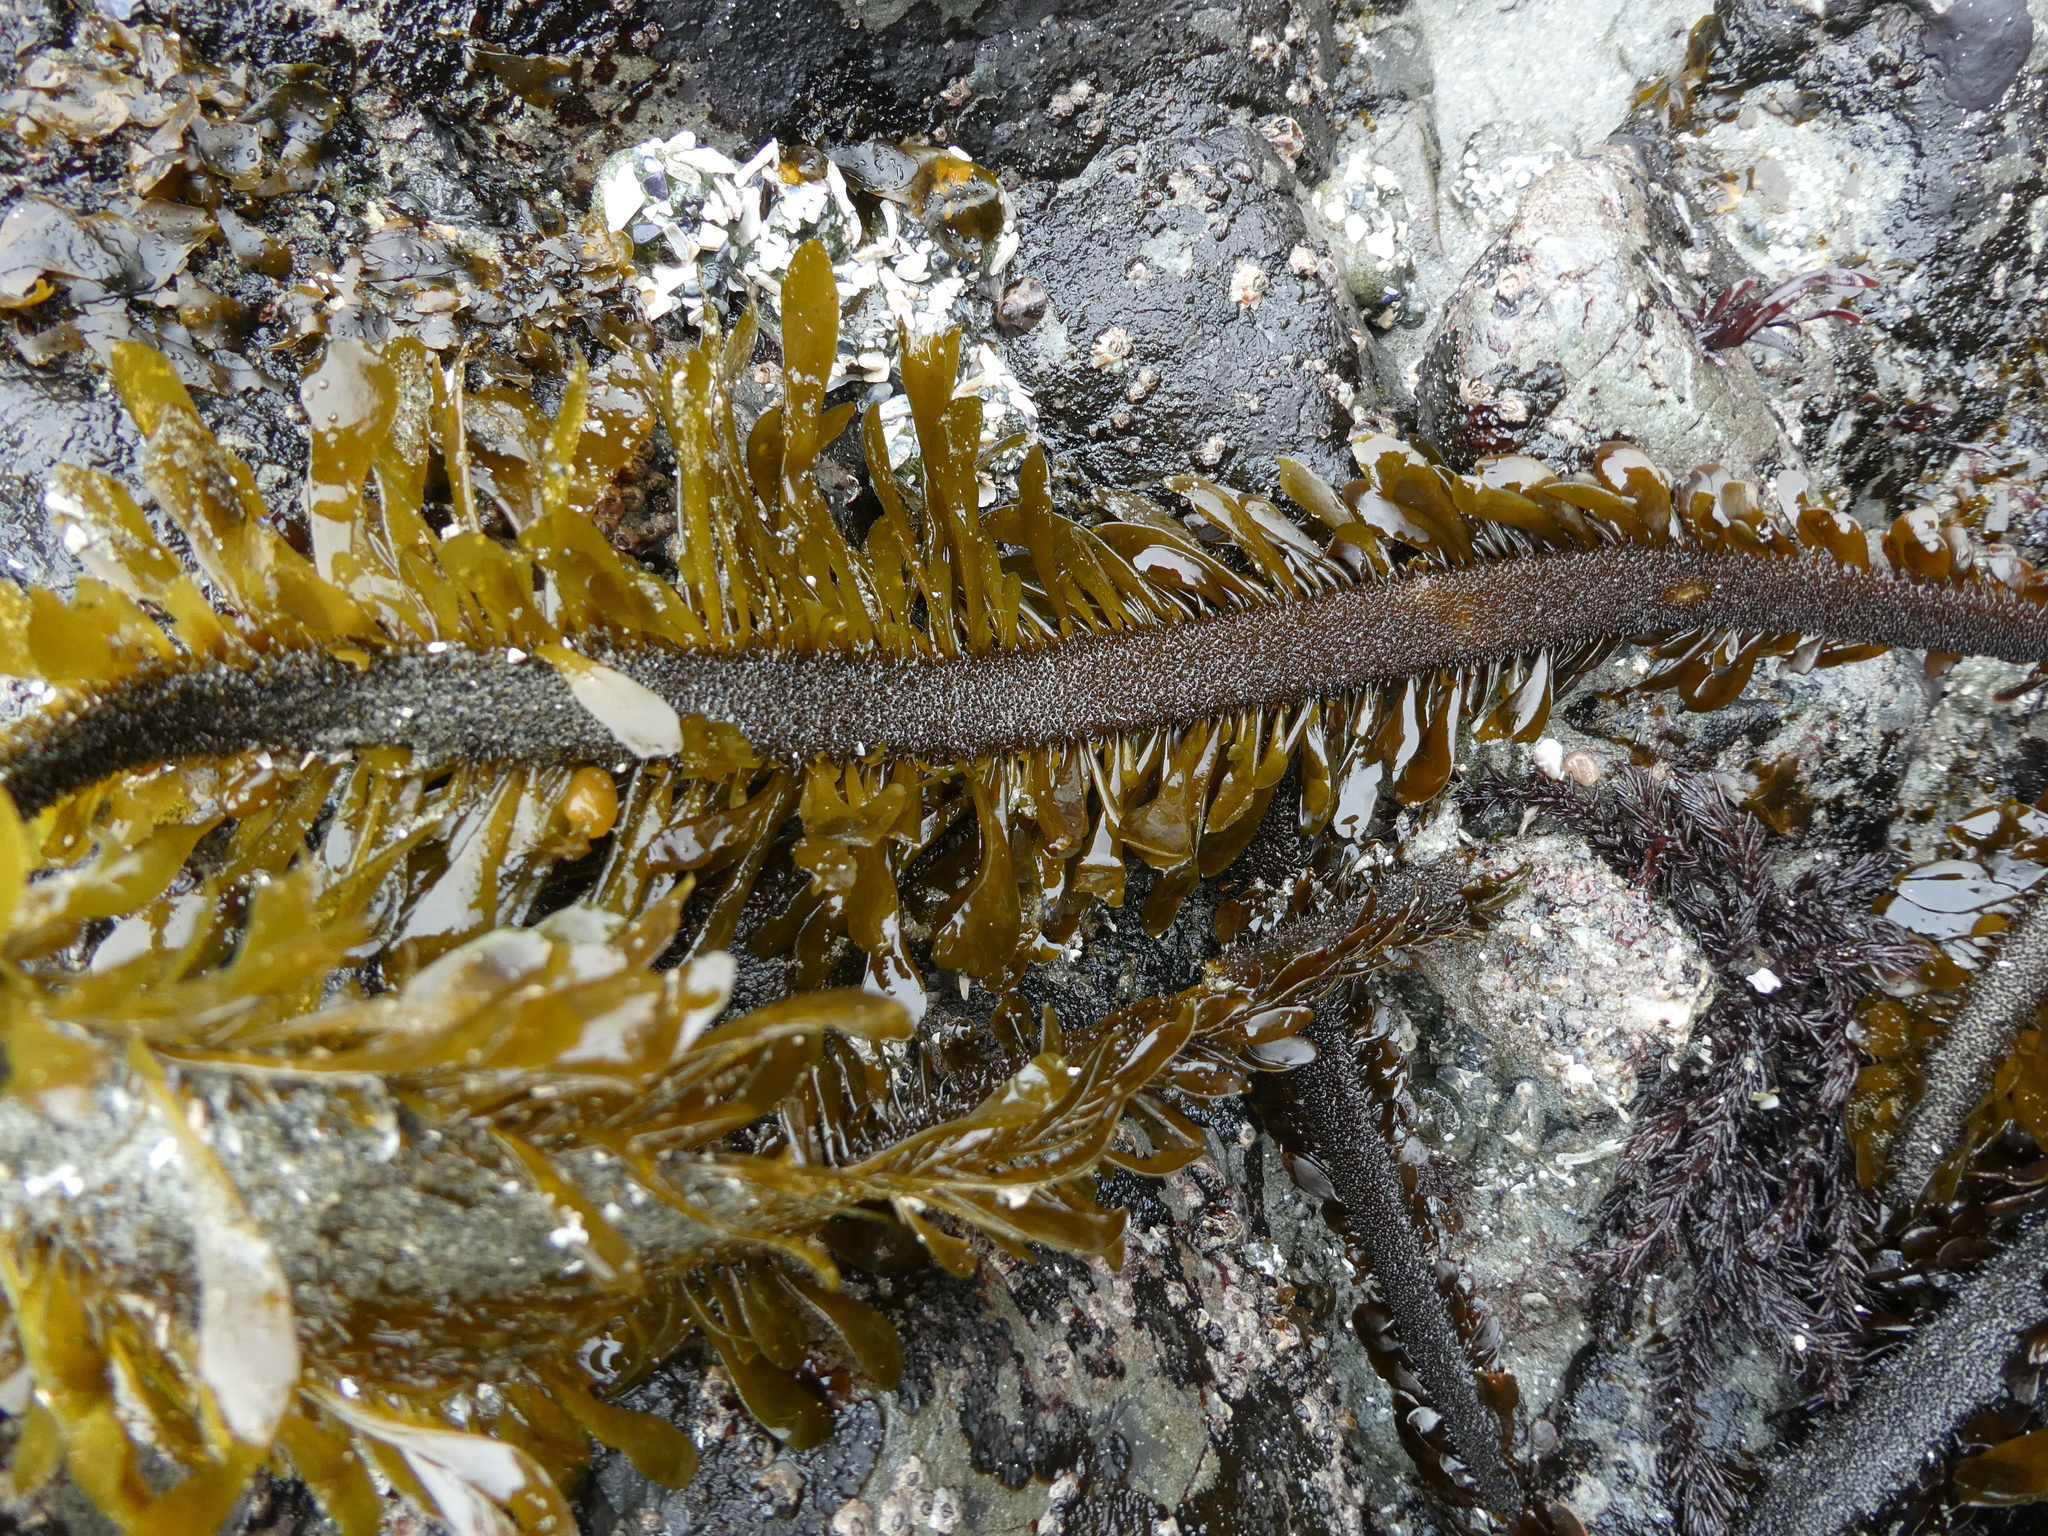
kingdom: Chromista
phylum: Ochrophyta
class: Phaeophyceae
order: Laminariales
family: Lessoniaceae
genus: Egregia
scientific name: Egregia menziesii
